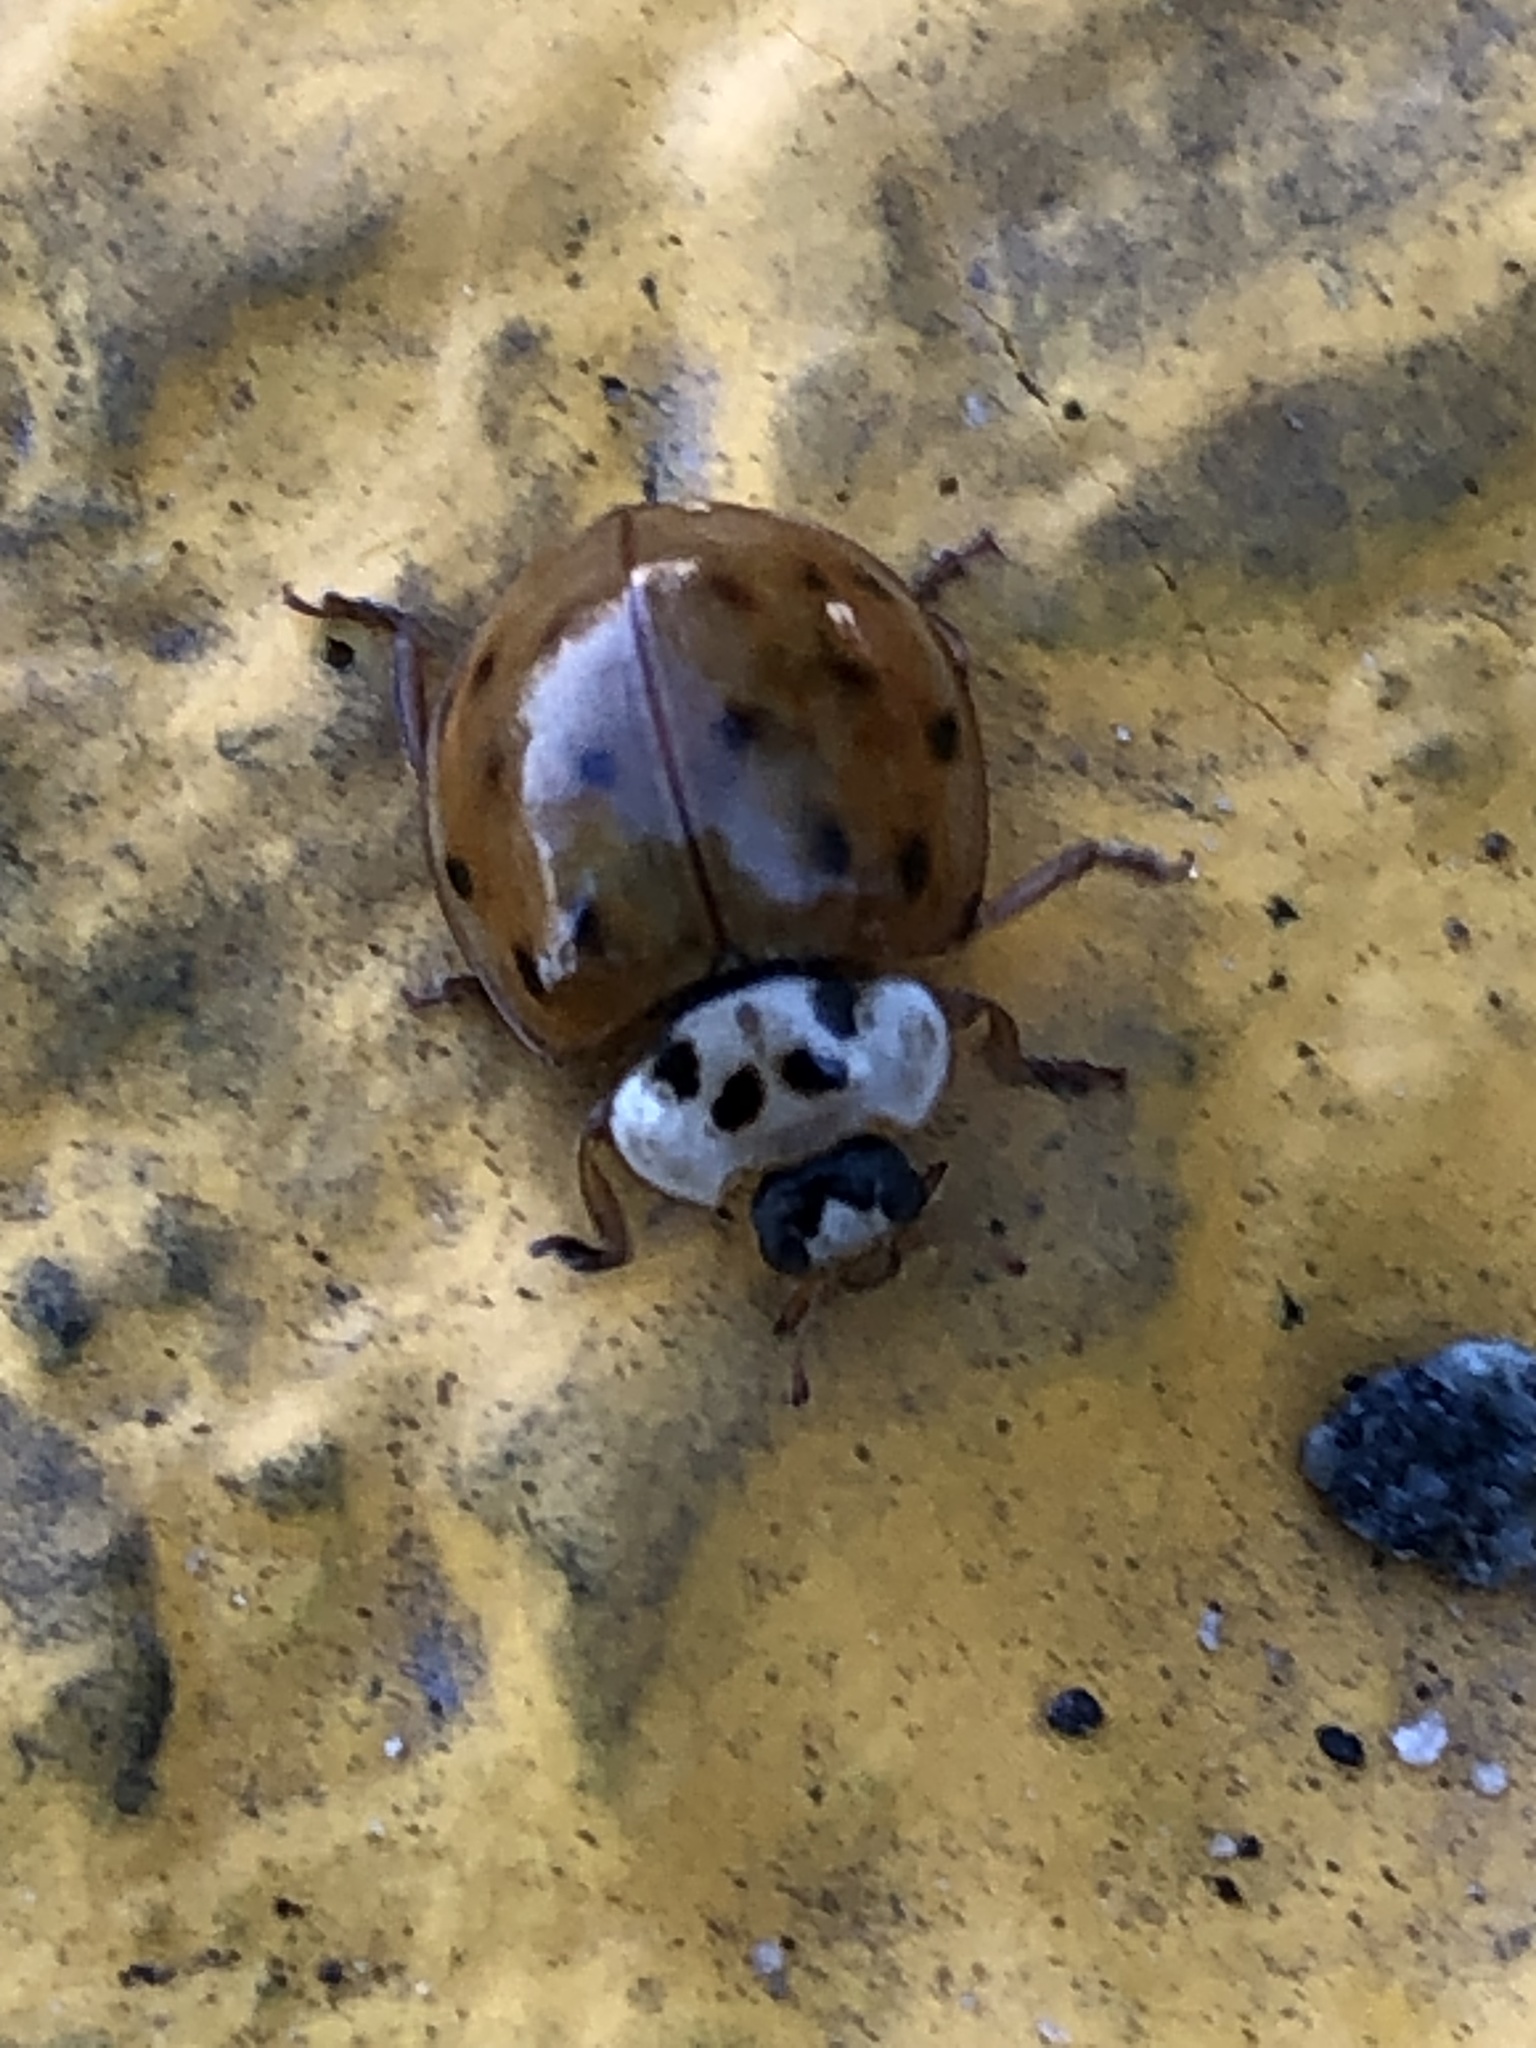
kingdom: Animalia
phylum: Arthropoda
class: Insecta
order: Coleoptera
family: Coccinellidae
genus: Harmonia
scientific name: Harmonia axyridis
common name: Harlequin ladybird
